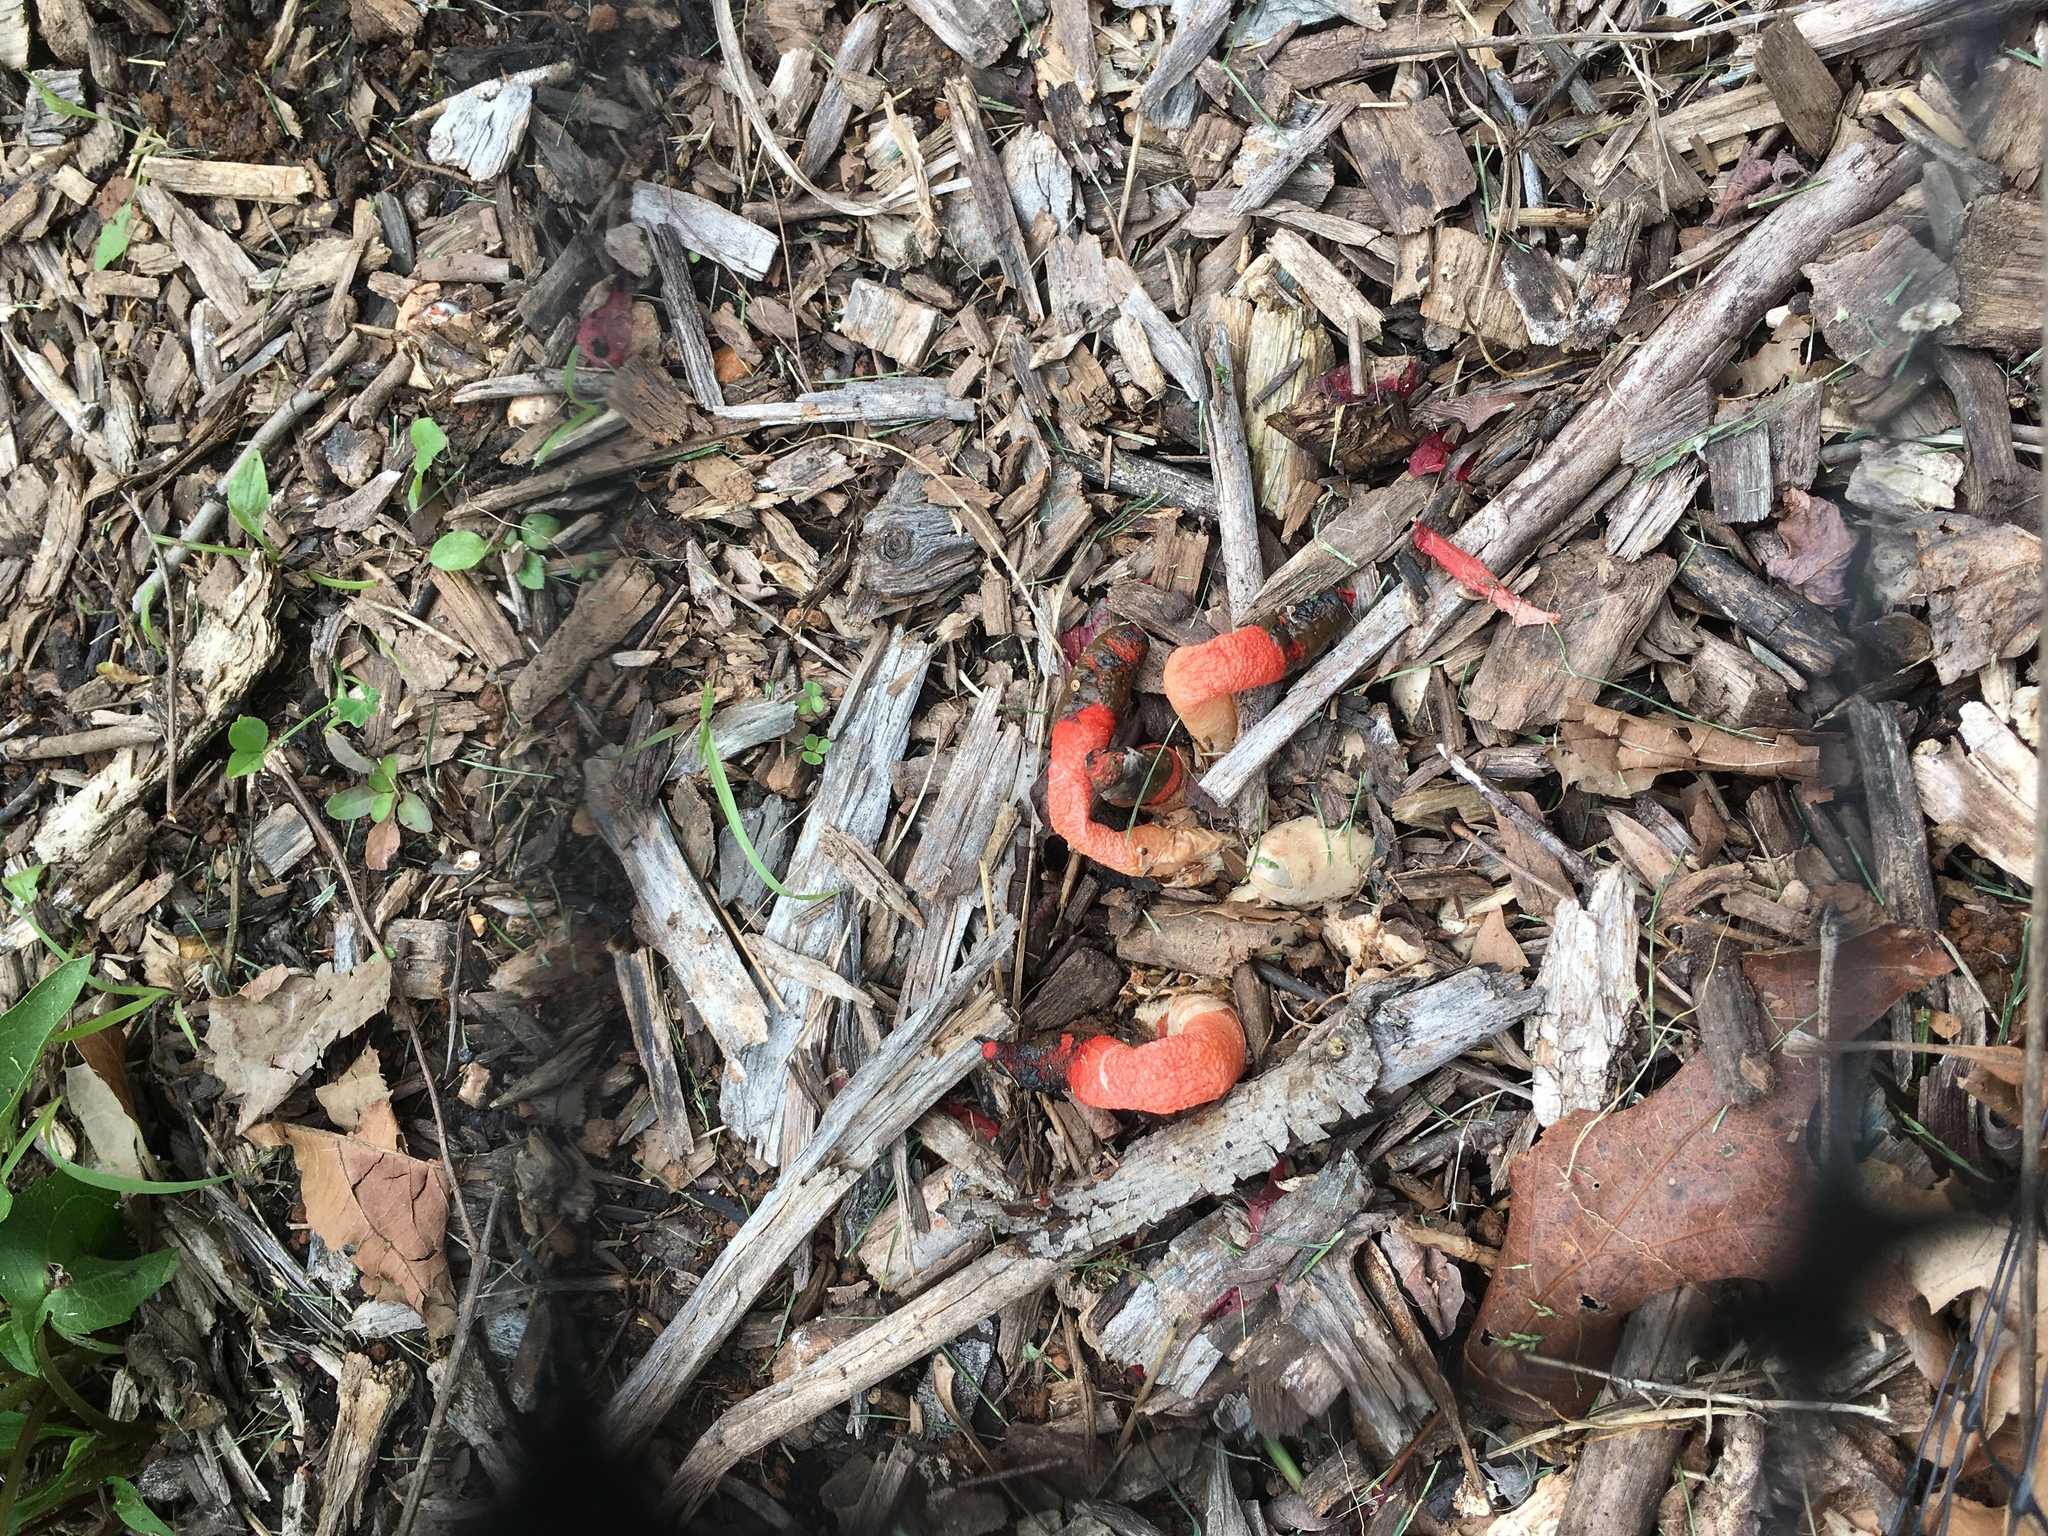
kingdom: Fungi
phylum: Basidiomycota
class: Agaricomycetes
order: Phallales
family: Phallaceae
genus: Mutinus
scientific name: Mutinus elegans
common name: Devil's dipstick
